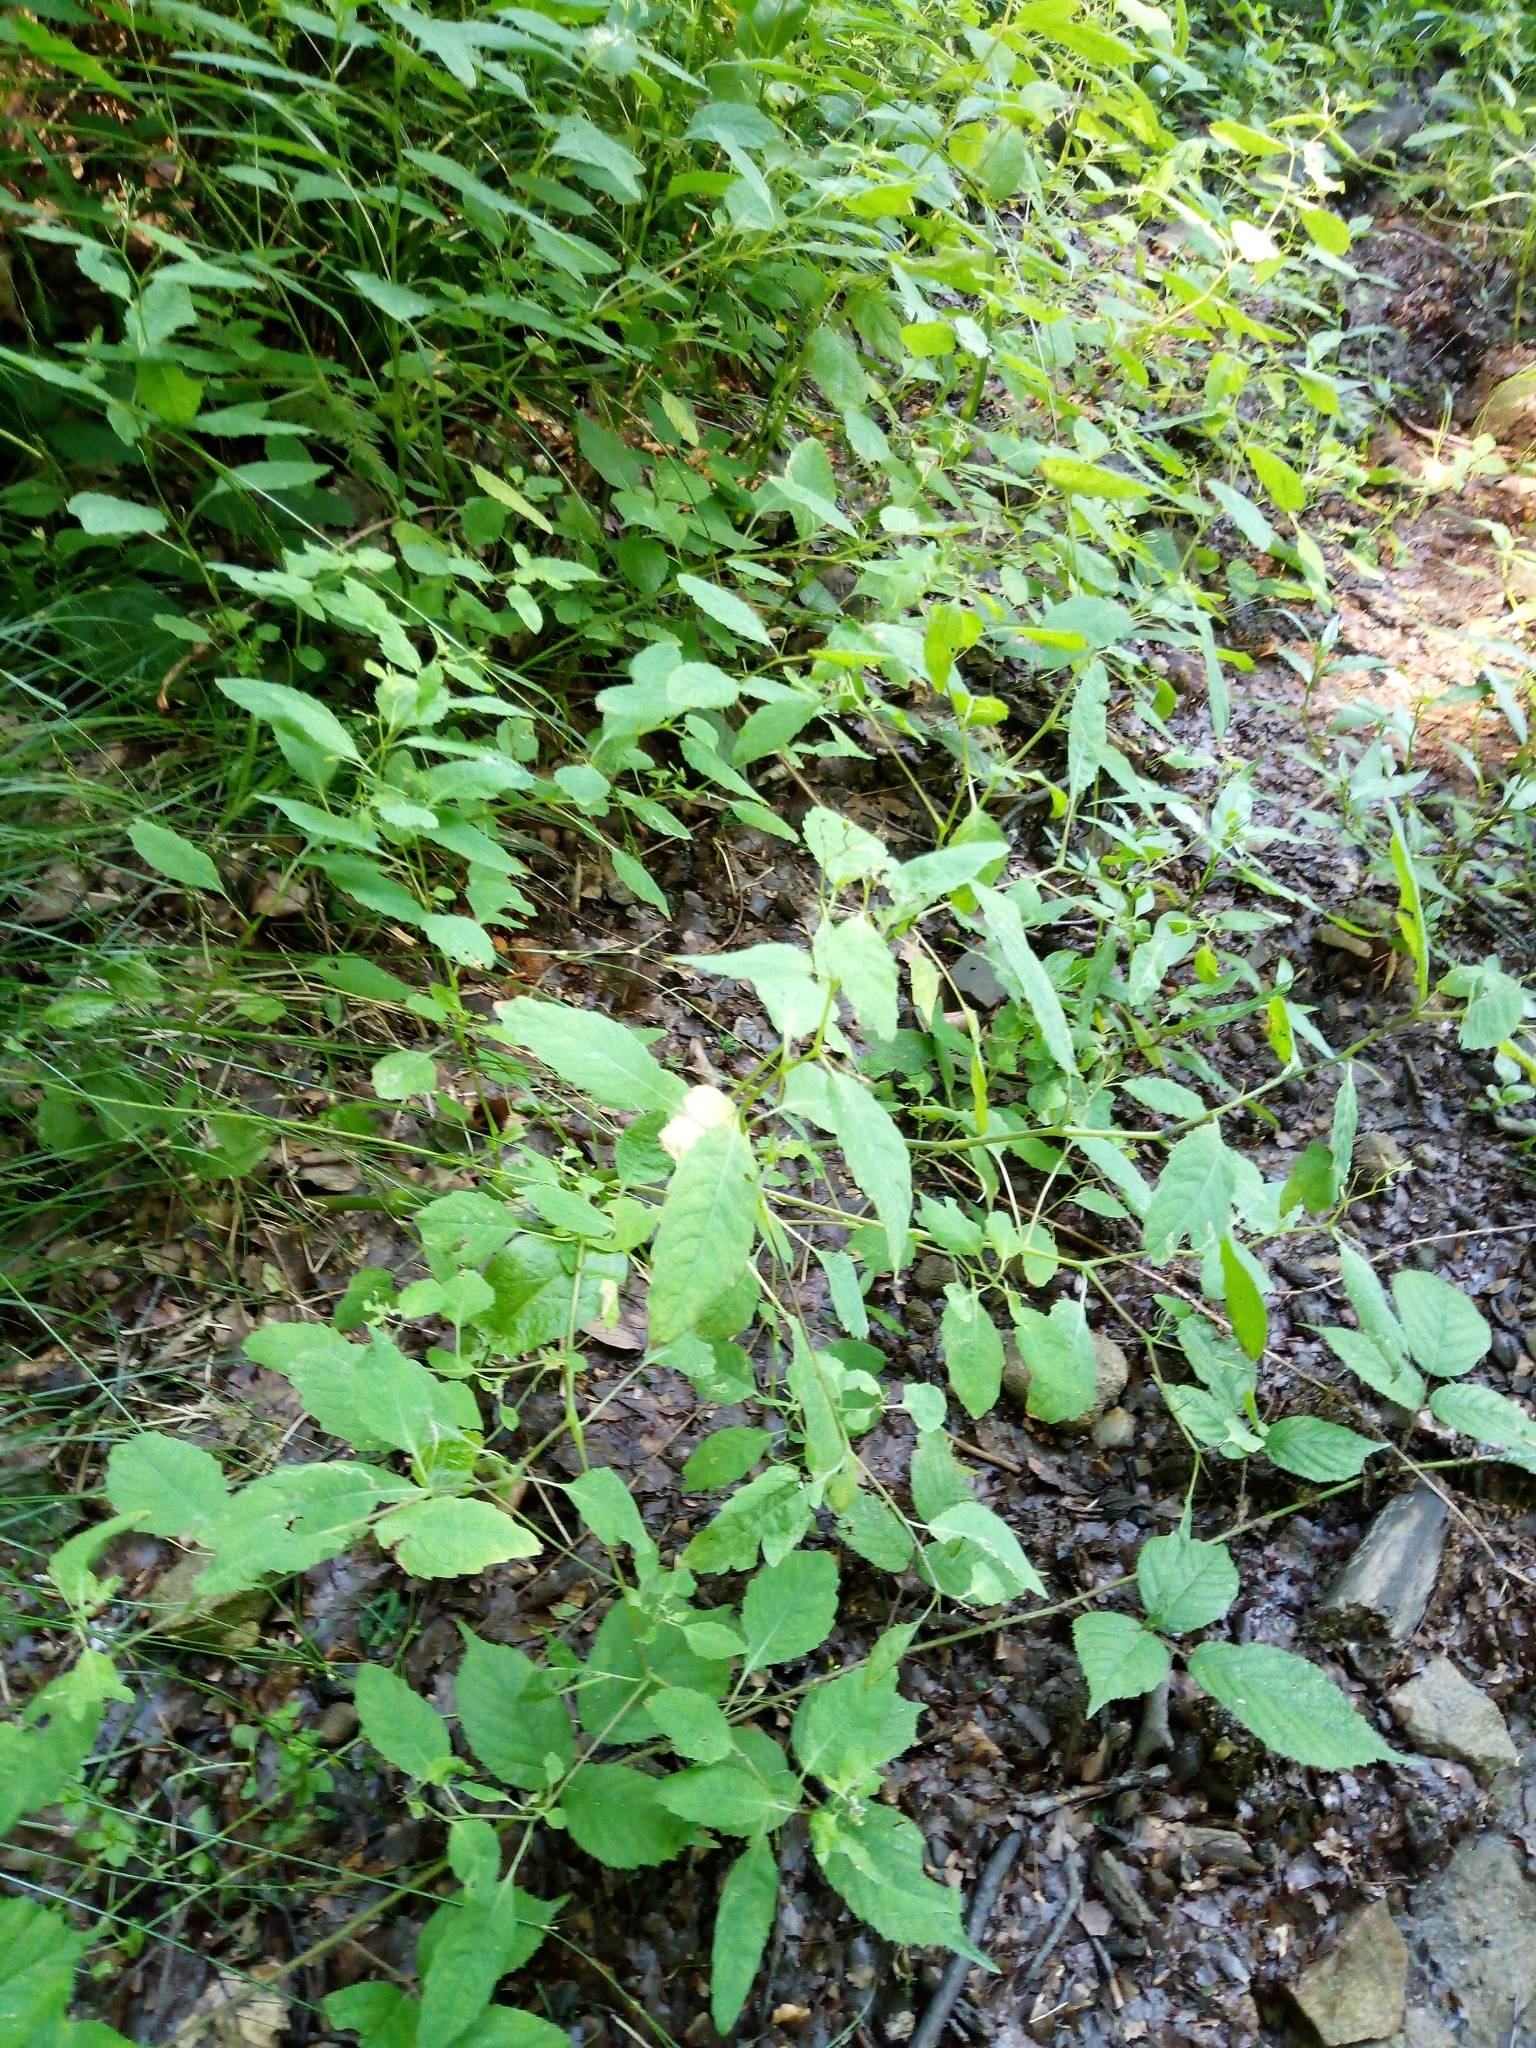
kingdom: Plantae
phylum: Tracheophyta
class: Magnoliopsida
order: Ericales
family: Balsaminaceae
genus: Impatiens
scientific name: Impatiens noli-tangere
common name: Touch-me-not balsam
